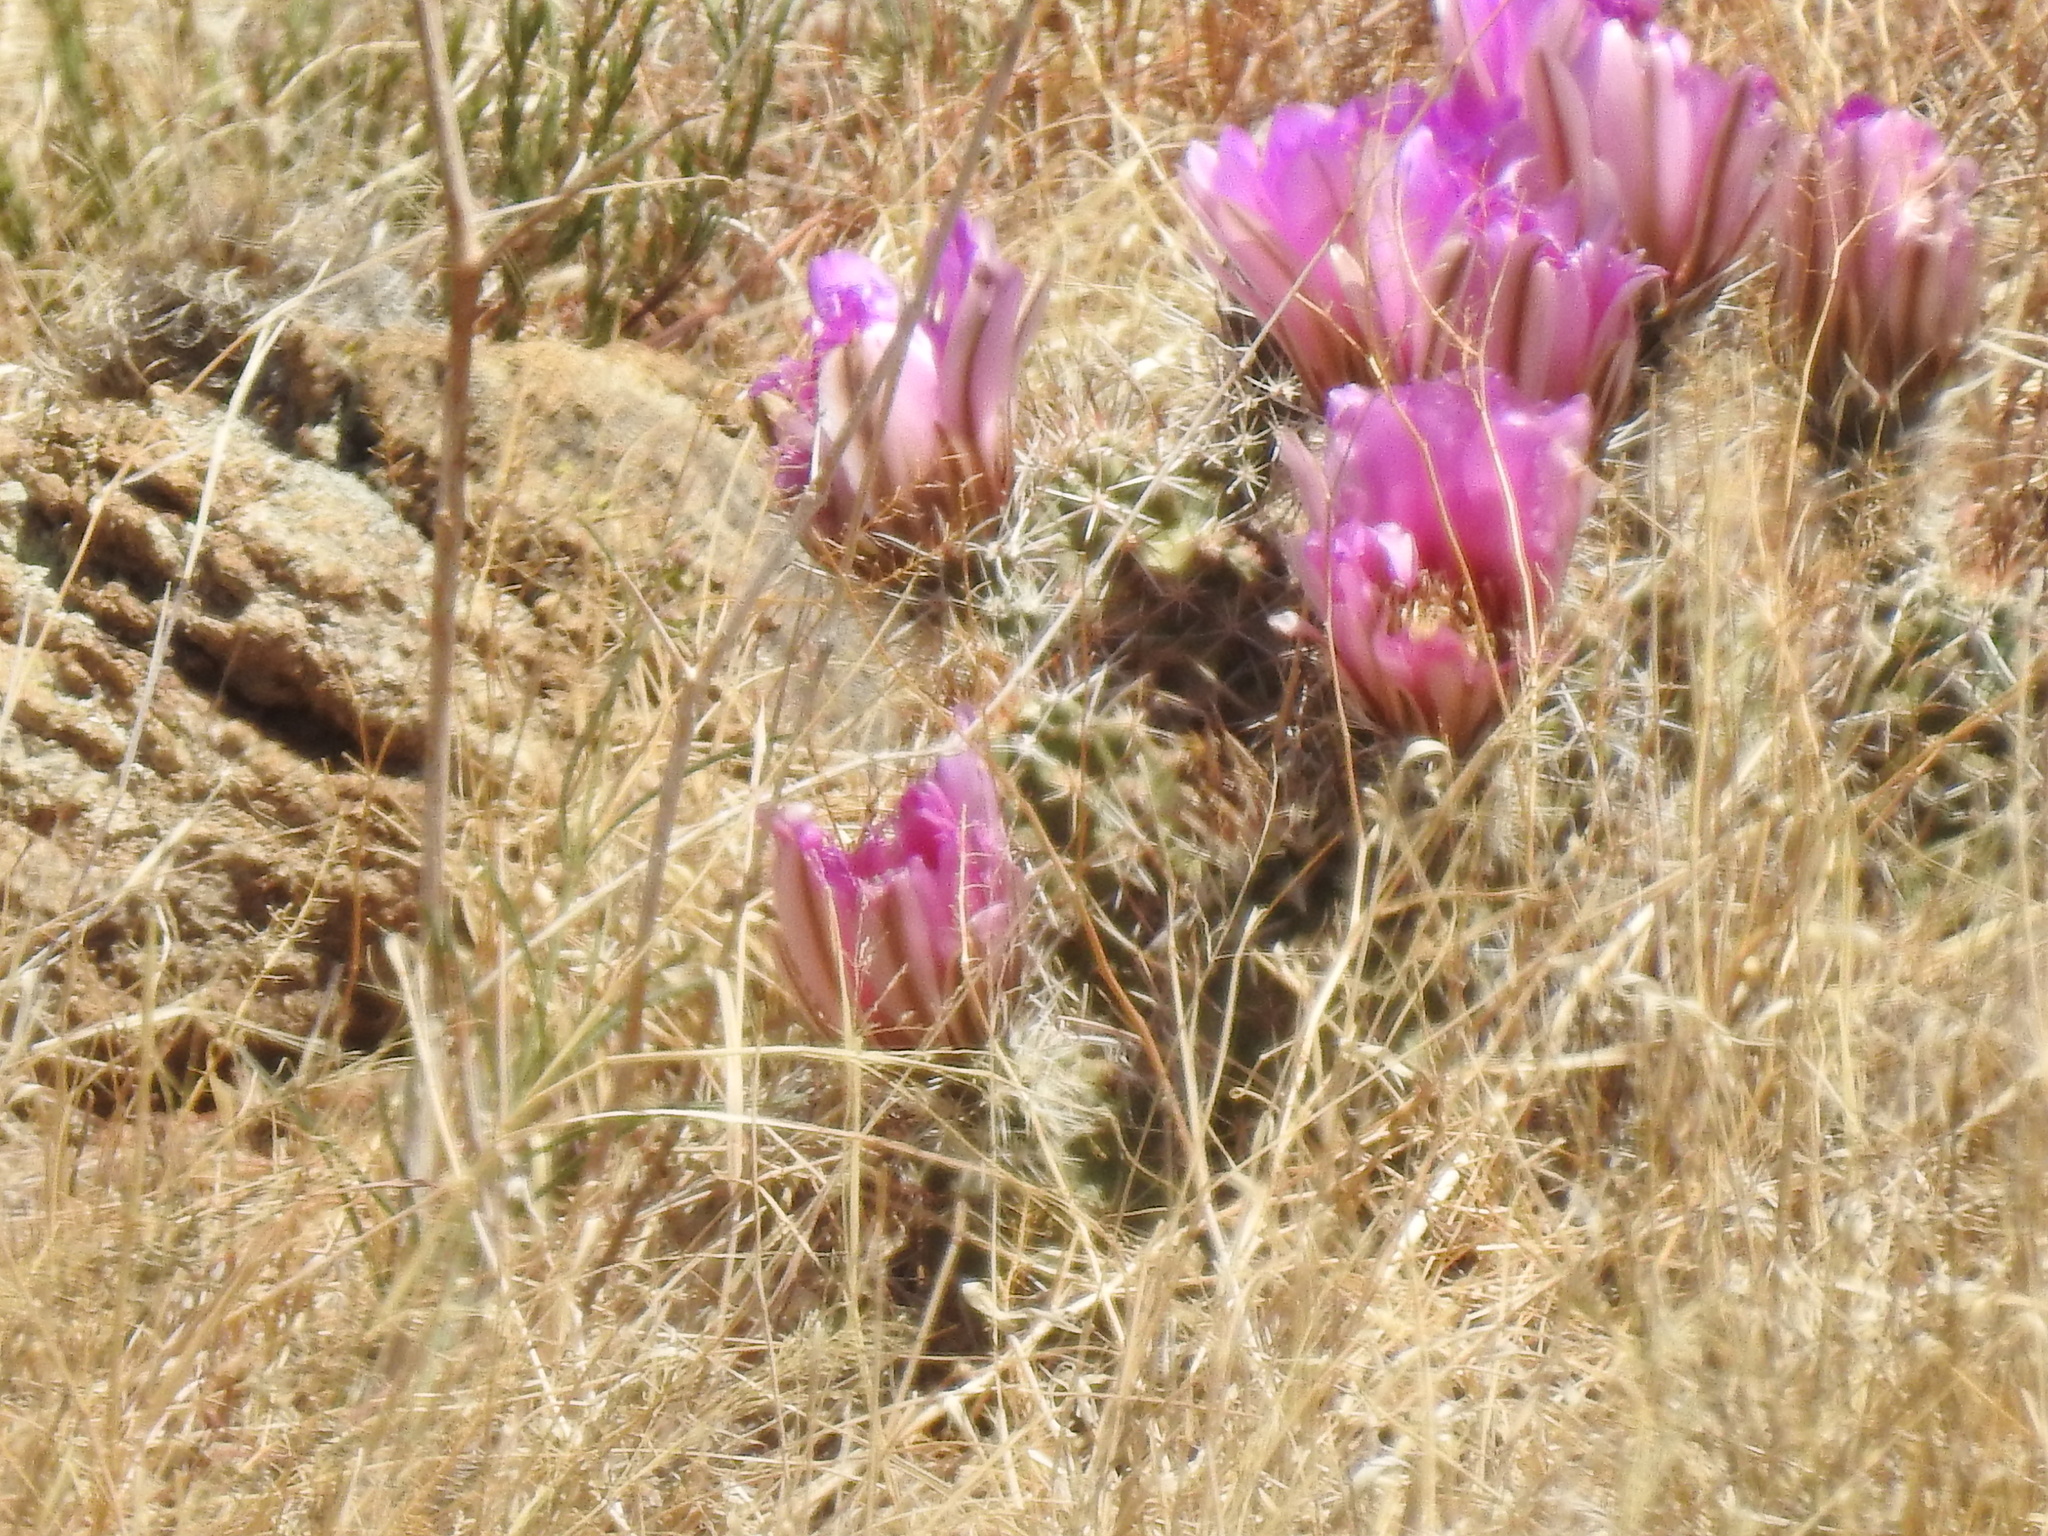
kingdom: Plantae
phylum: Tracheophyta
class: Magnoliopsida
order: Caryophyllales
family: Cactaceae
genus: Echinocereus
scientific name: Echinocereus fendleri
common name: Fendler's hedgehog cactus
